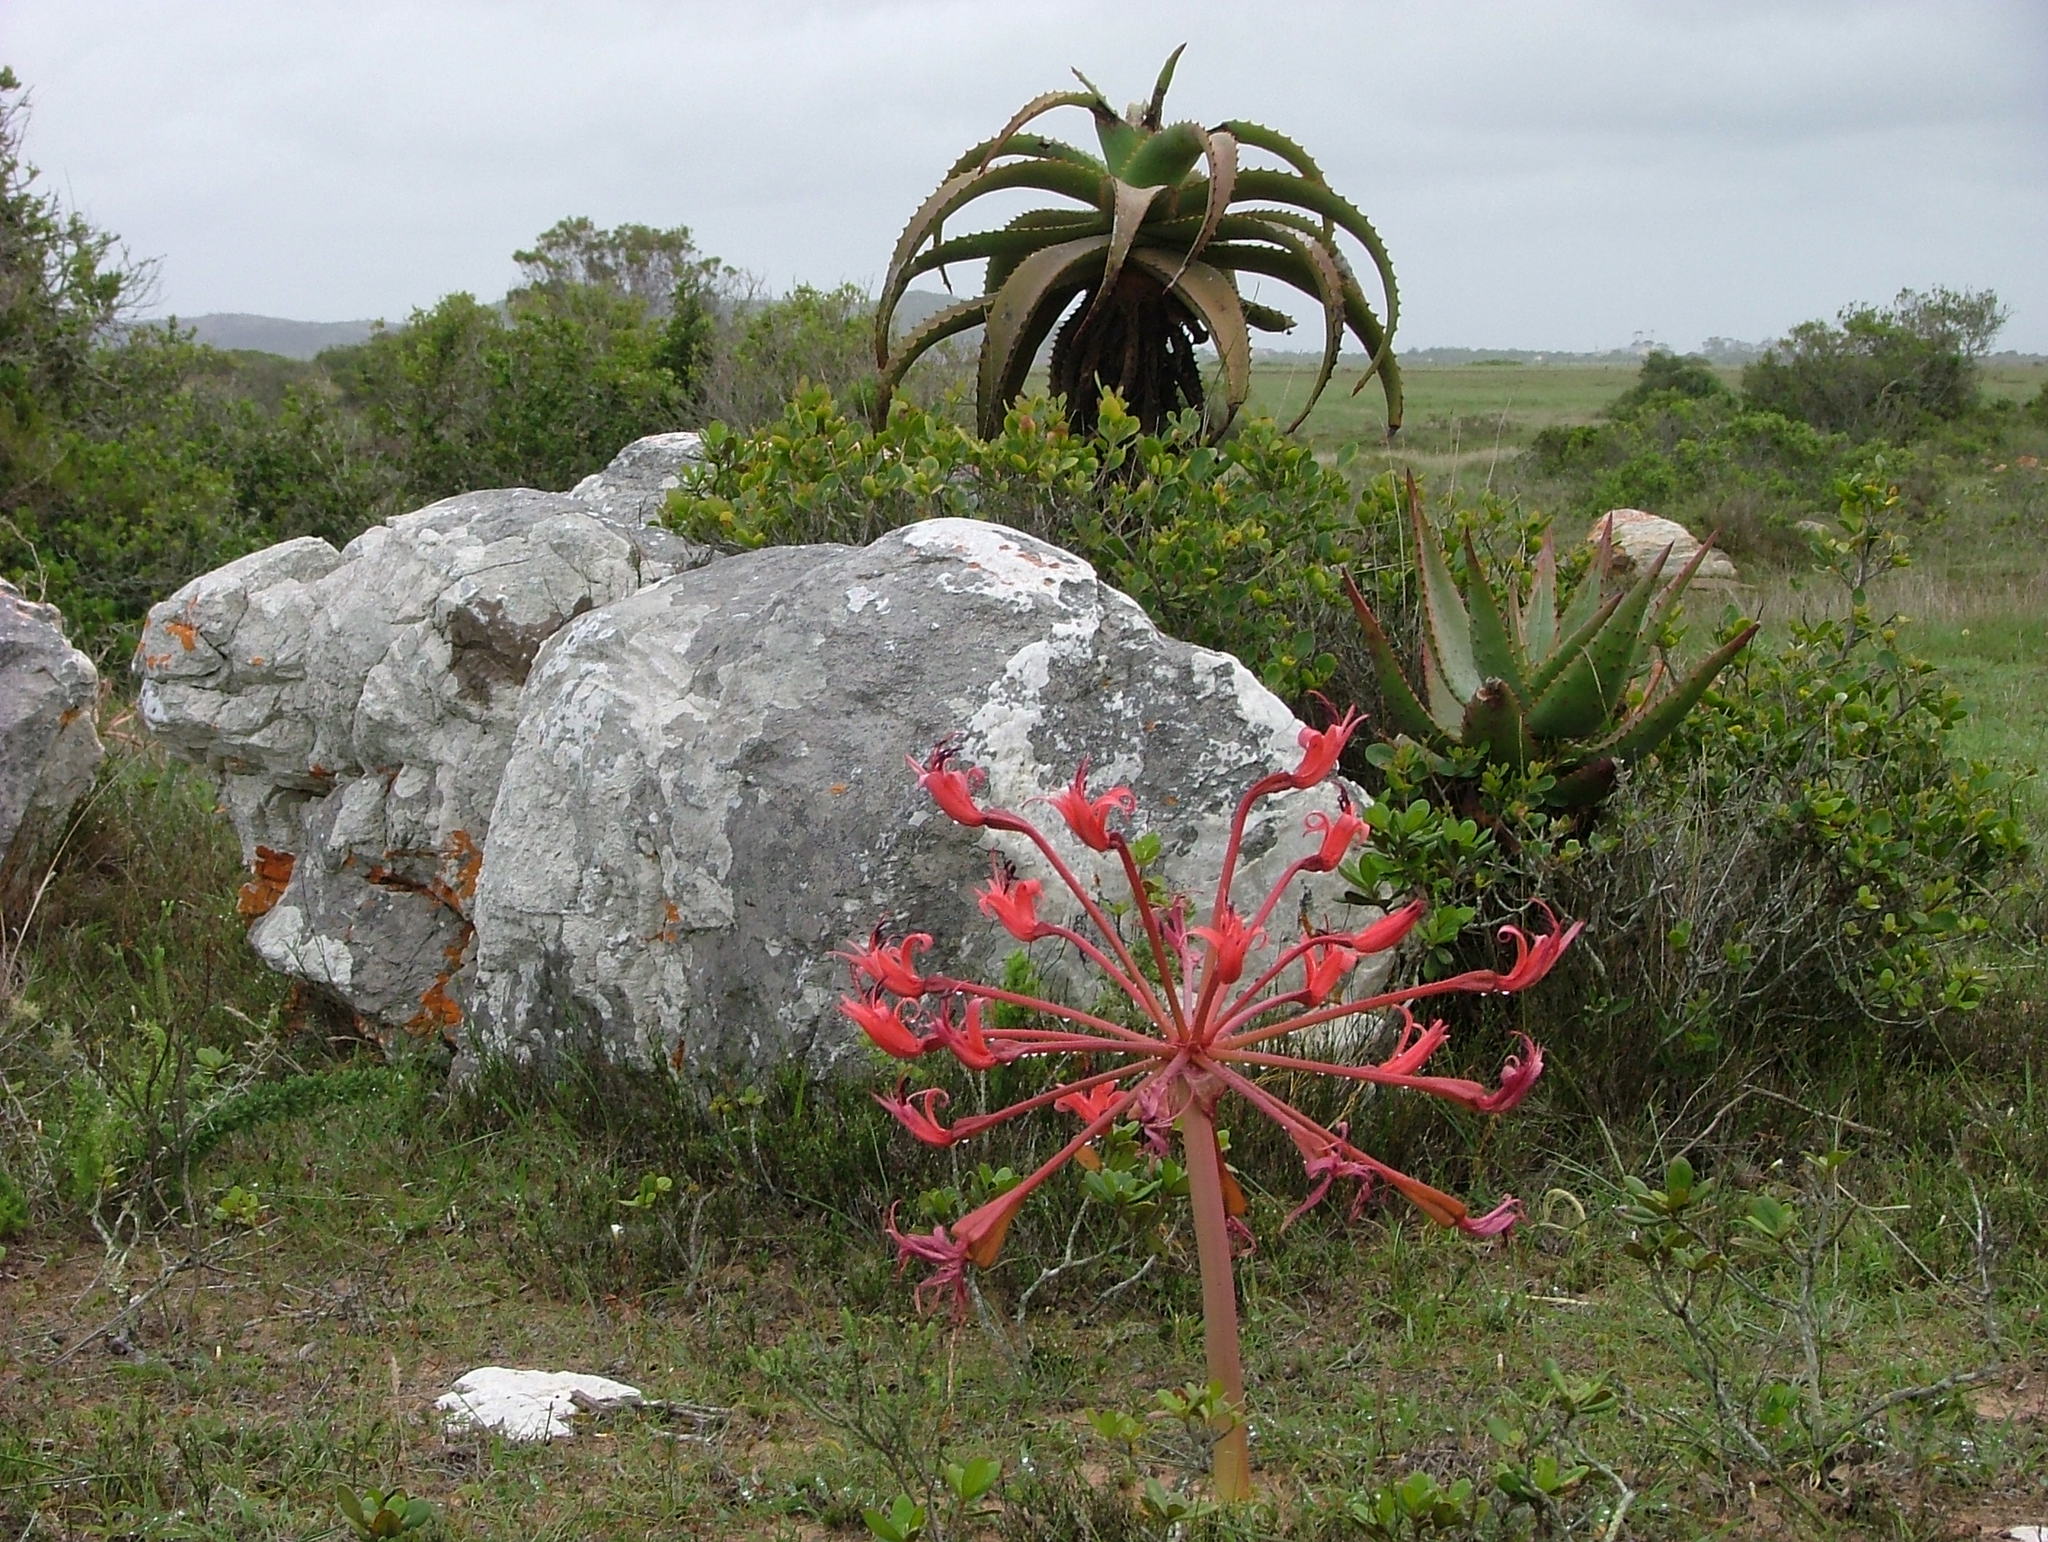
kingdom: Plantae
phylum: Tracheophyta
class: Liliopsida
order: Asparagales
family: Amaryllidaceae
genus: Brunsvigia
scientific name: Brunsvigia orientalis
